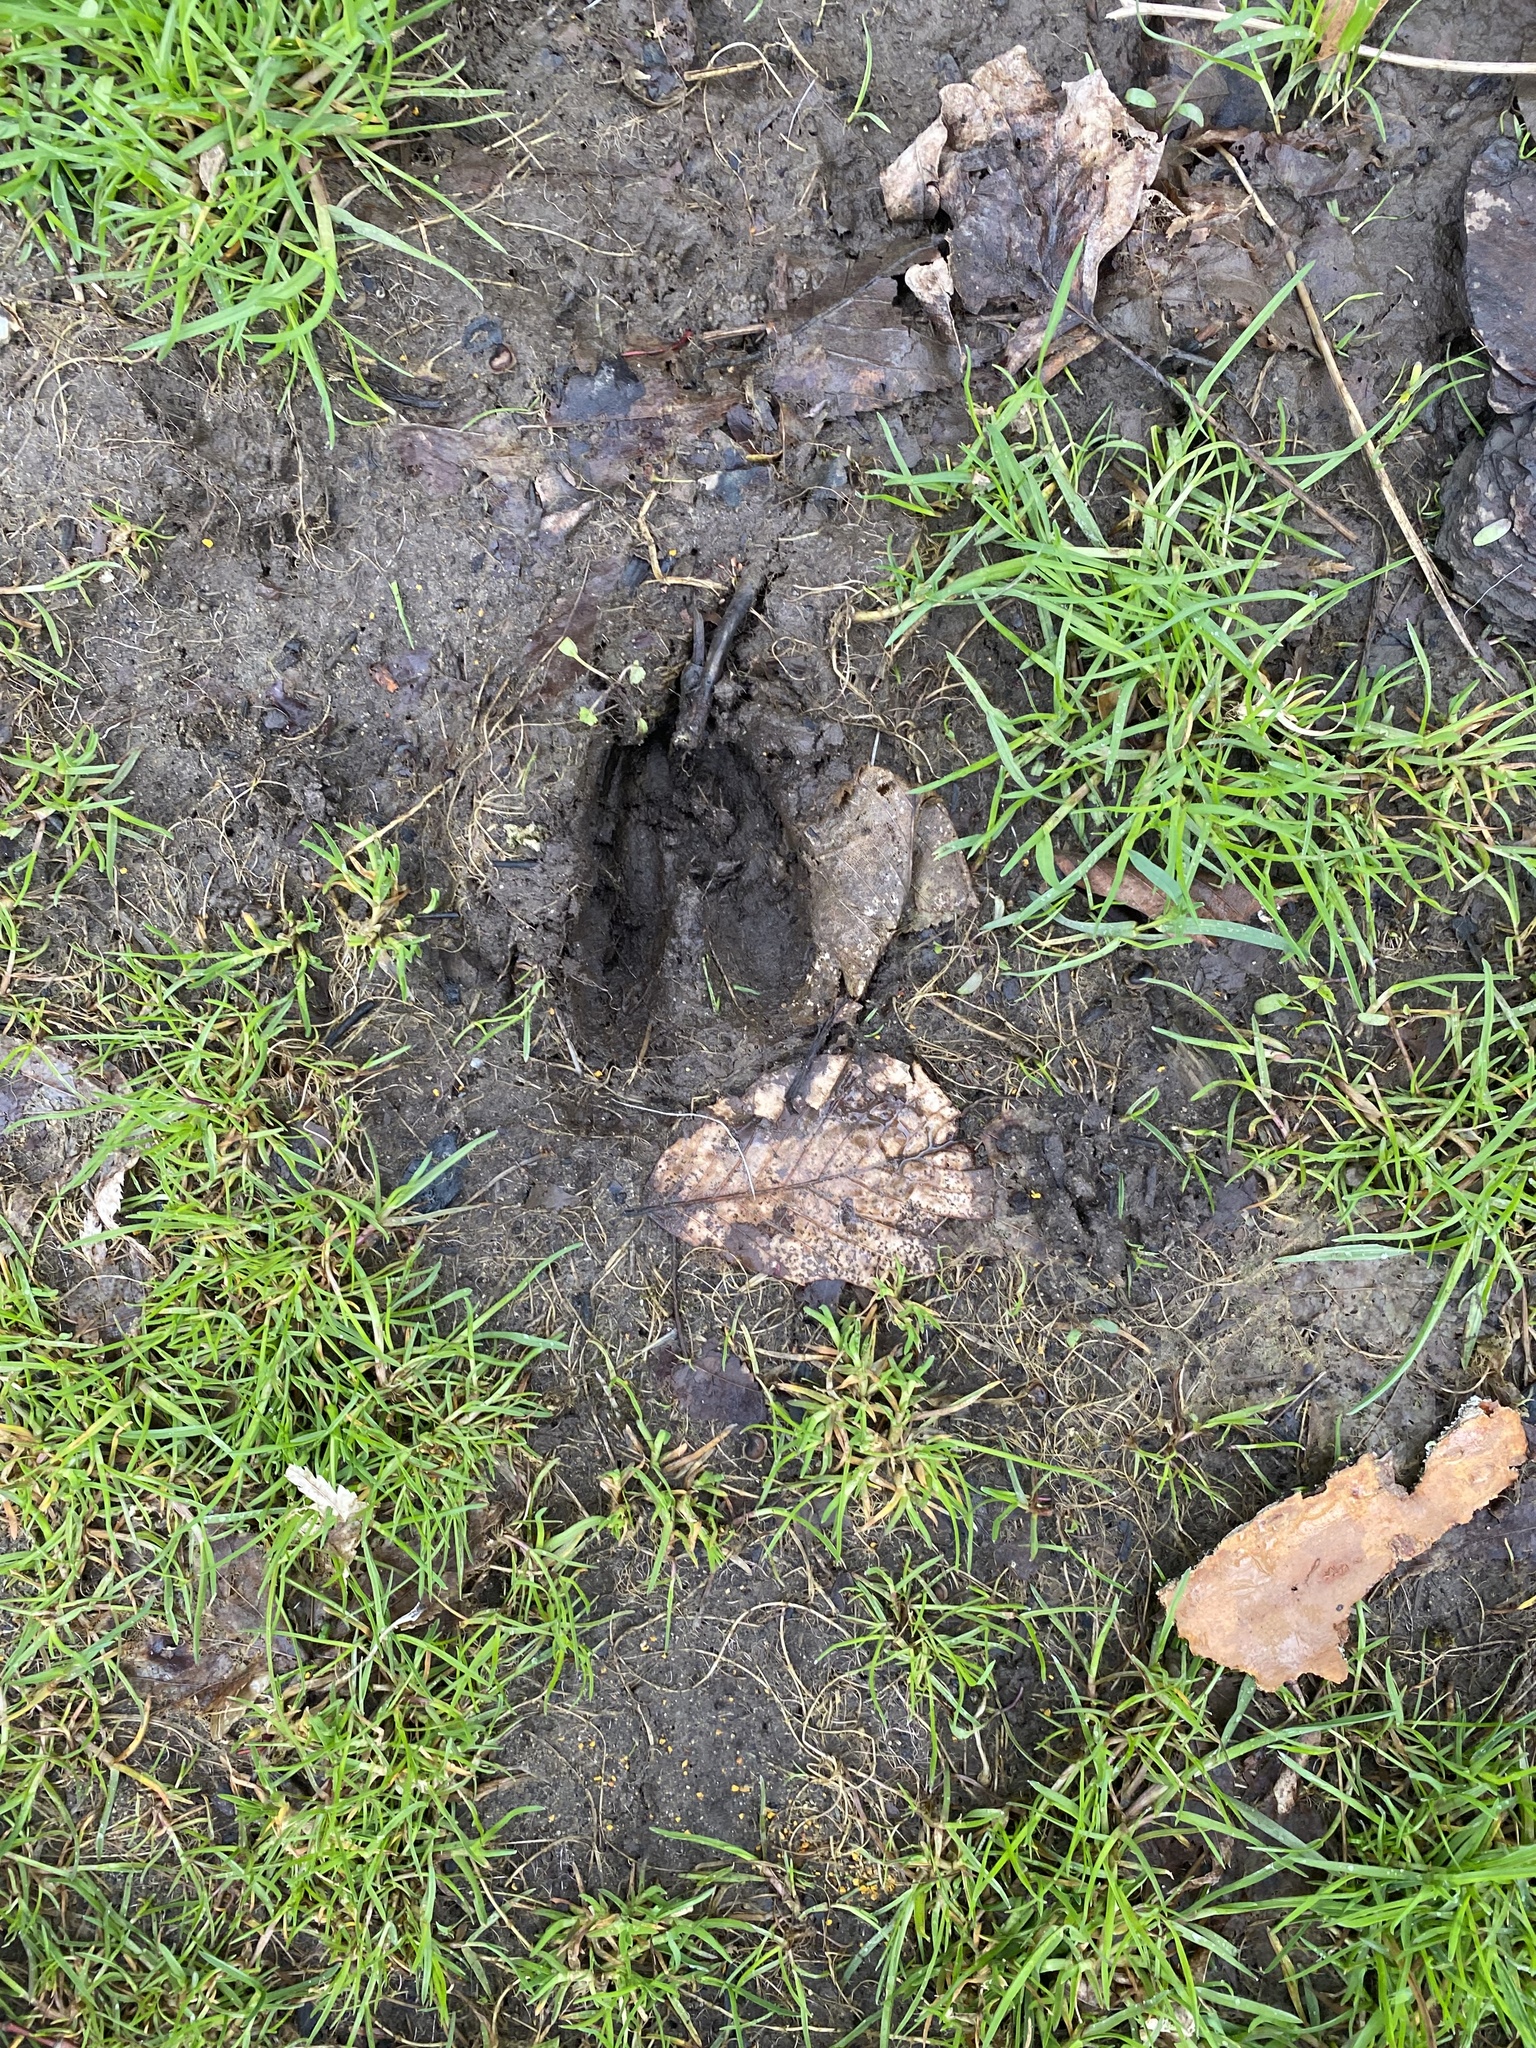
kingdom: Animalia
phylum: Chordata
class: Mammalia
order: Artiodactyla
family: Cervidae
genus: Odocoileus
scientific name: Odocoileus virginianus
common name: White-tailed deer
